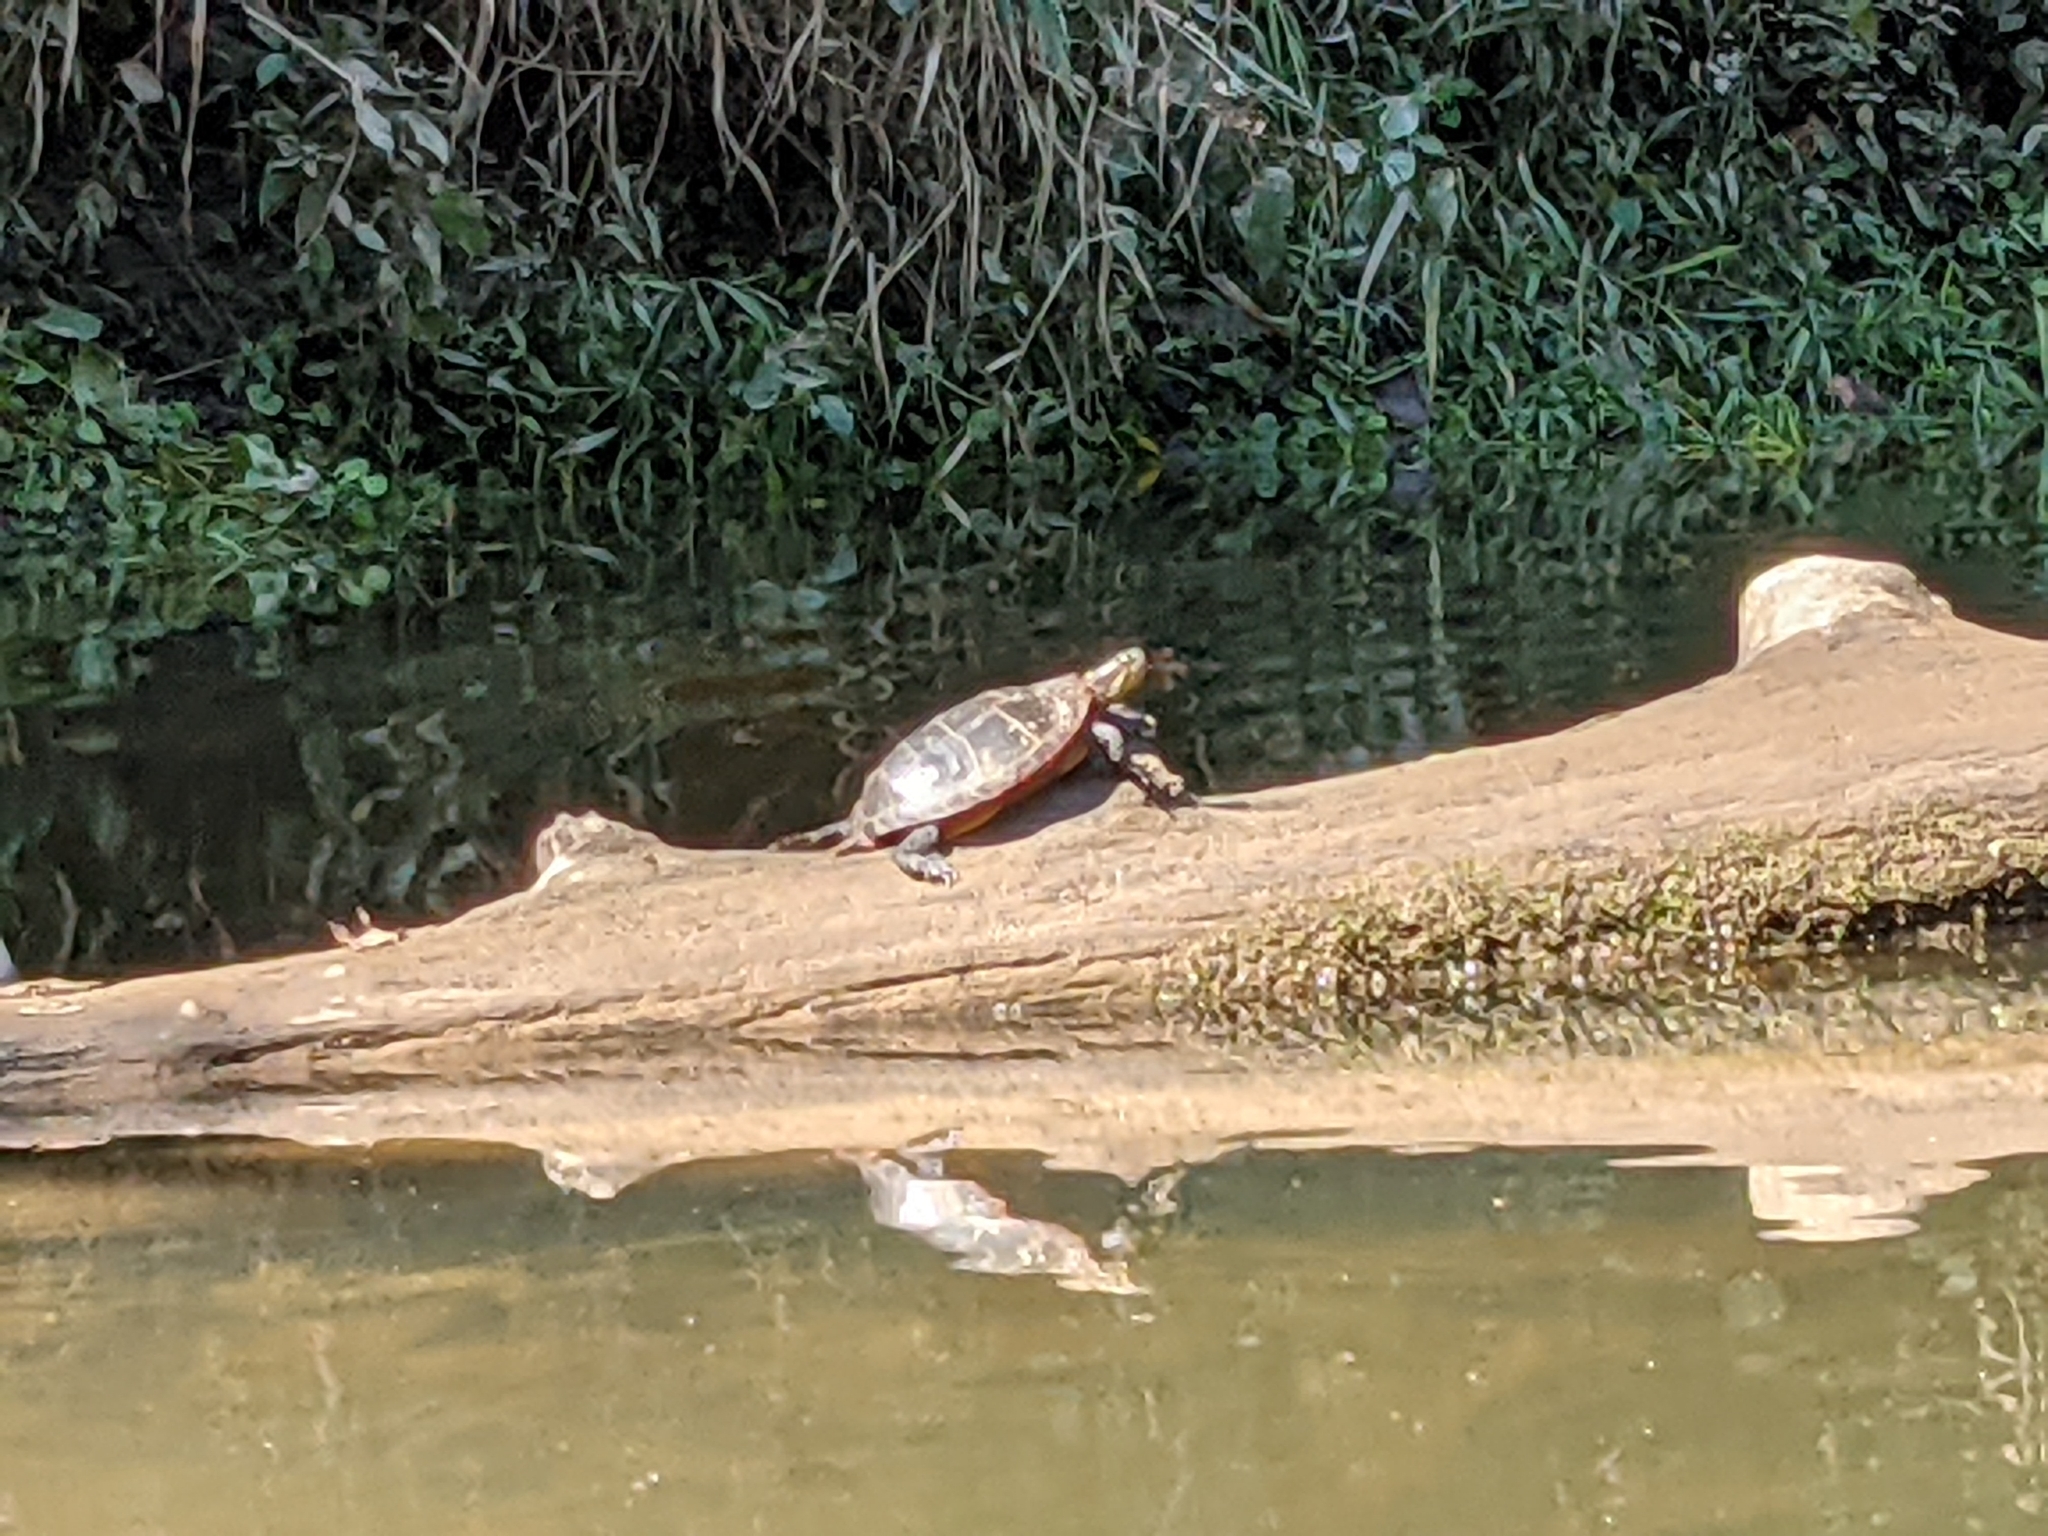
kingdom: Animalia
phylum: Chordata
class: Testudines
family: Emydidae
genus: Chrysemys
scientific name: Chrysemys picta
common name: Painted turtle
